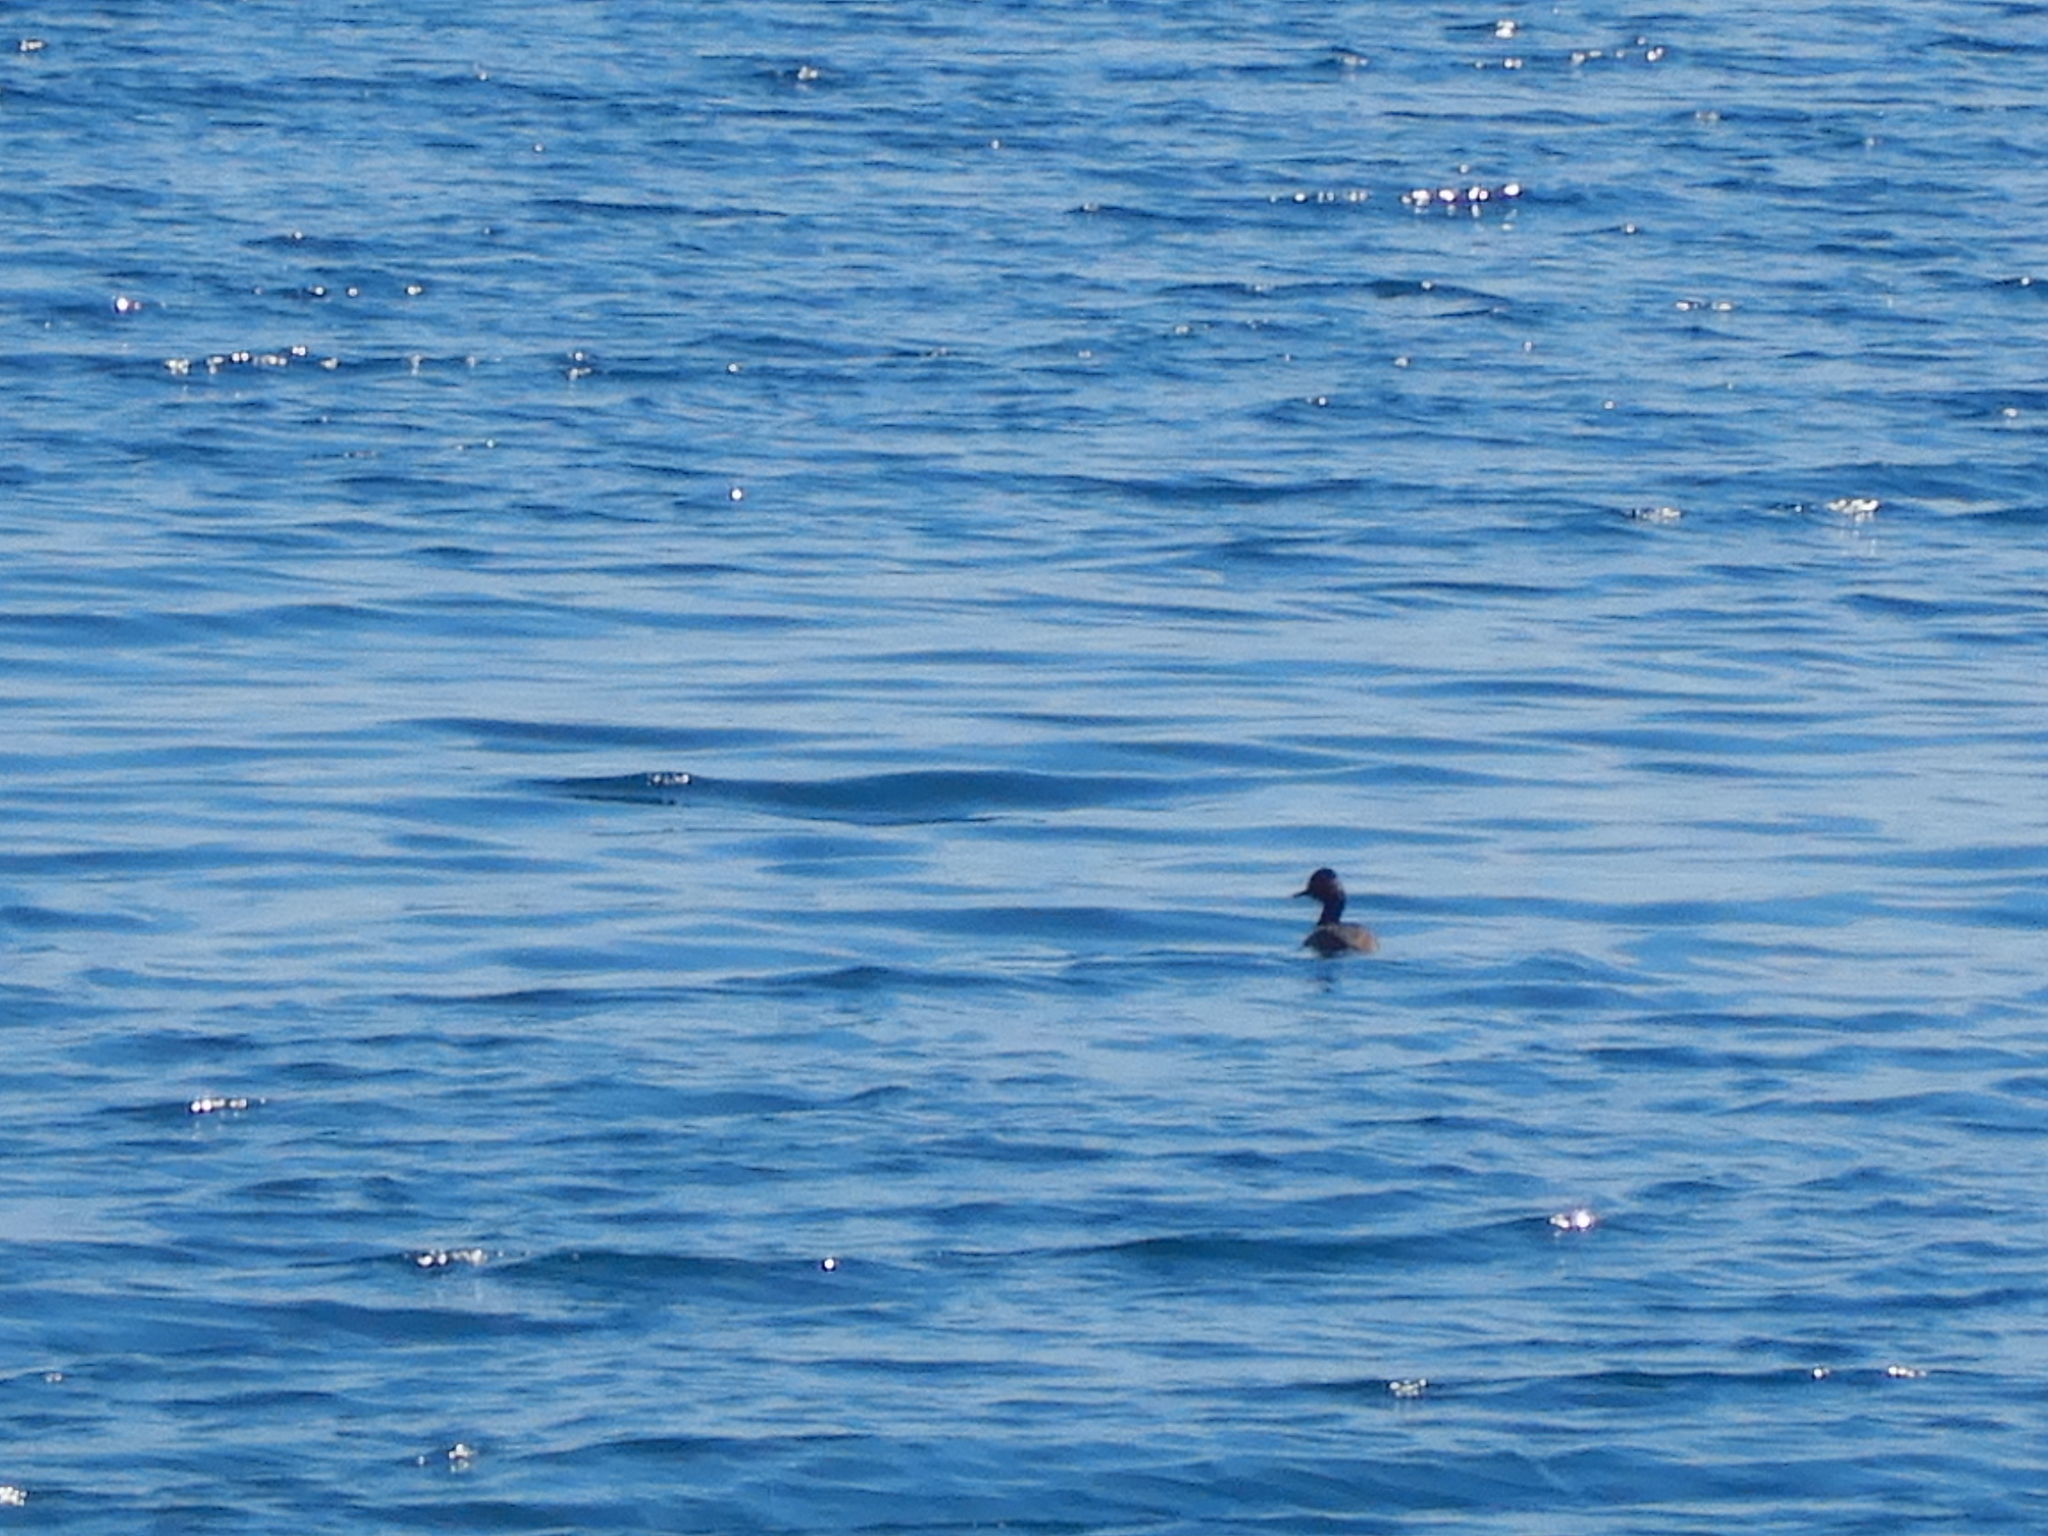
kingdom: Animalia
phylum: Chordata
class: Aves
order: Podicipediformes
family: Podicipedidae
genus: Podiceps
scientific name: Podiceps nigricollis
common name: Black-necked grebe
